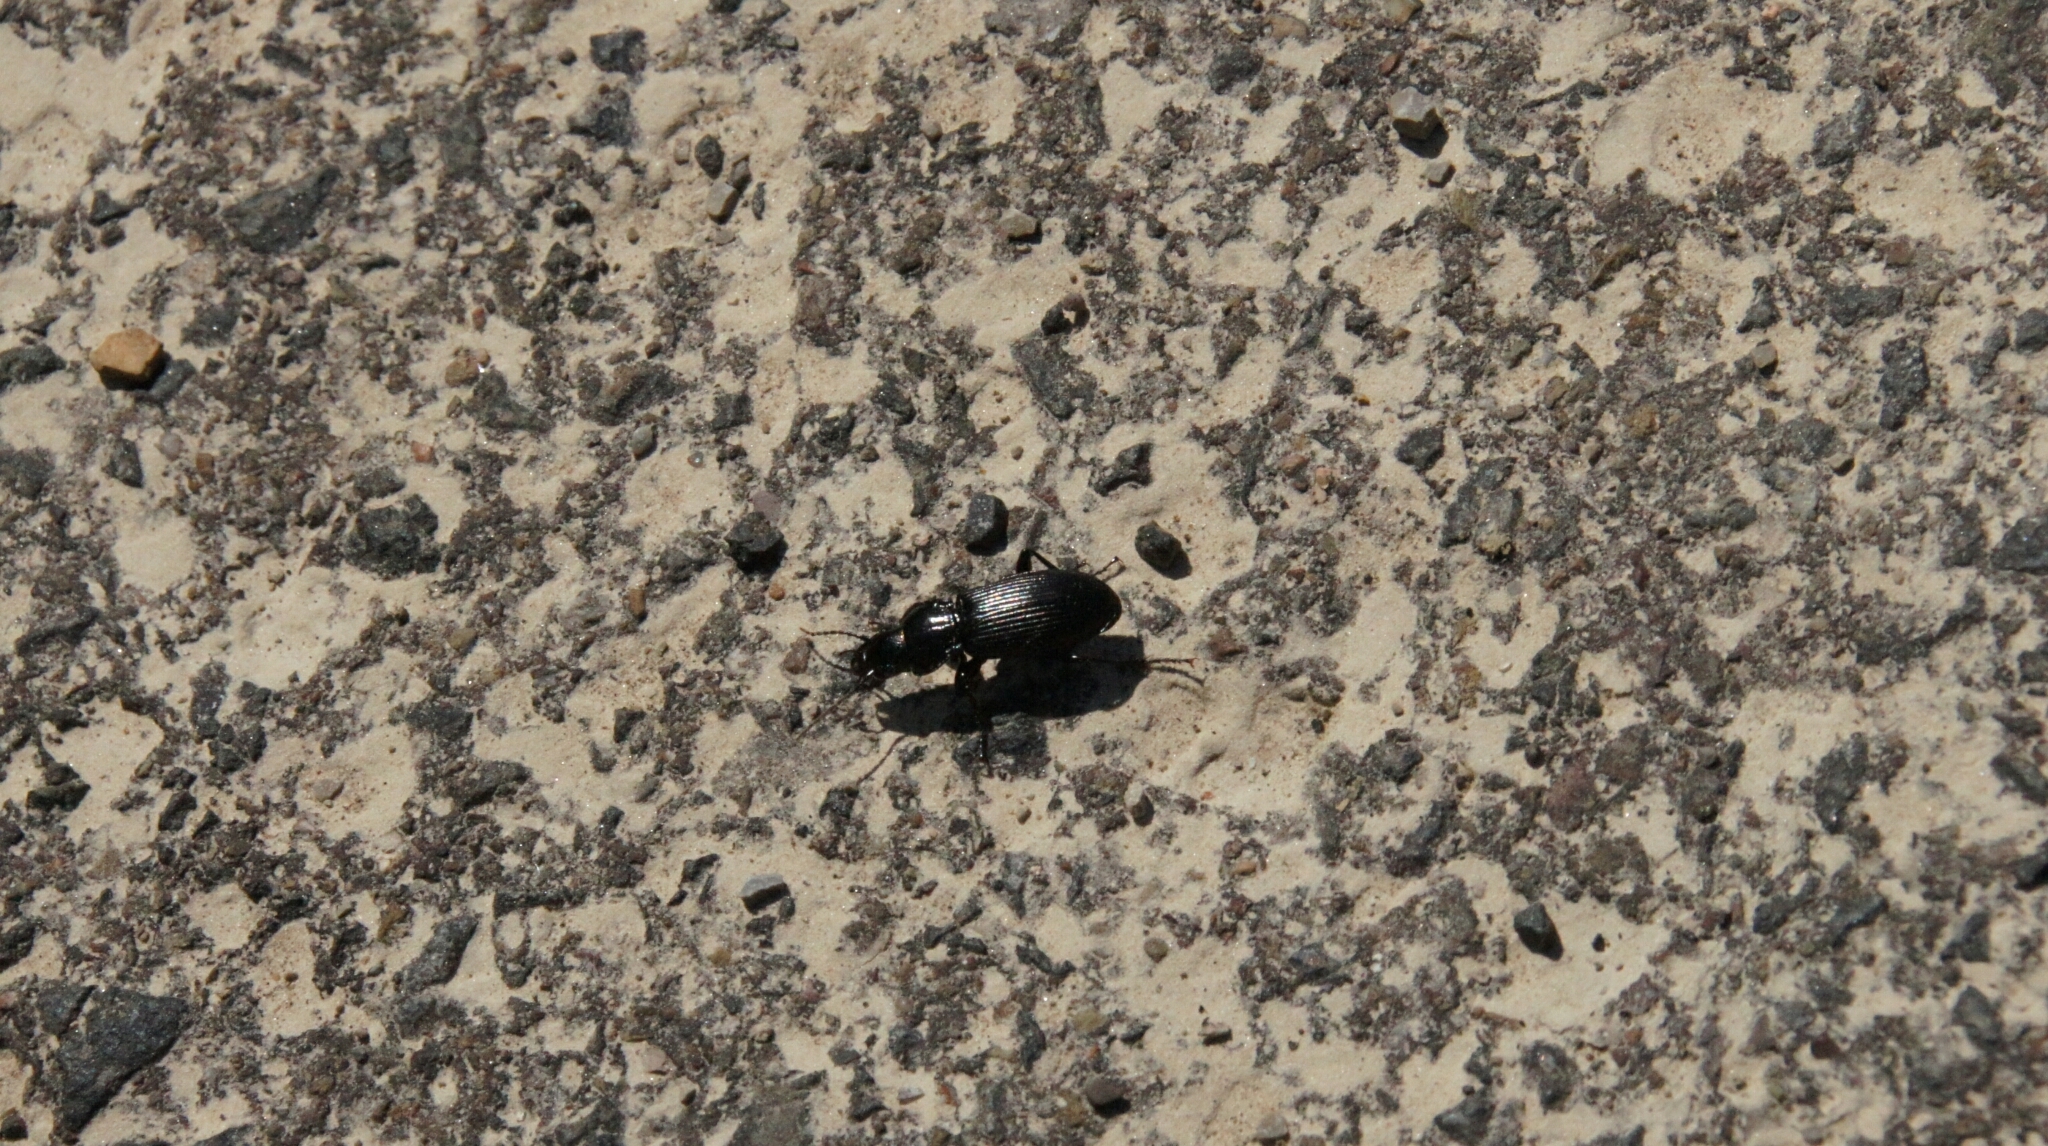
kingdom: Animalia
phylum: Arthropoda
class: Insecta
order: Coleoptera
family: Carabidae
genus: Pterostichus
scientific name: Pterostichus melanarius
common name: European dark harp ground beetle
